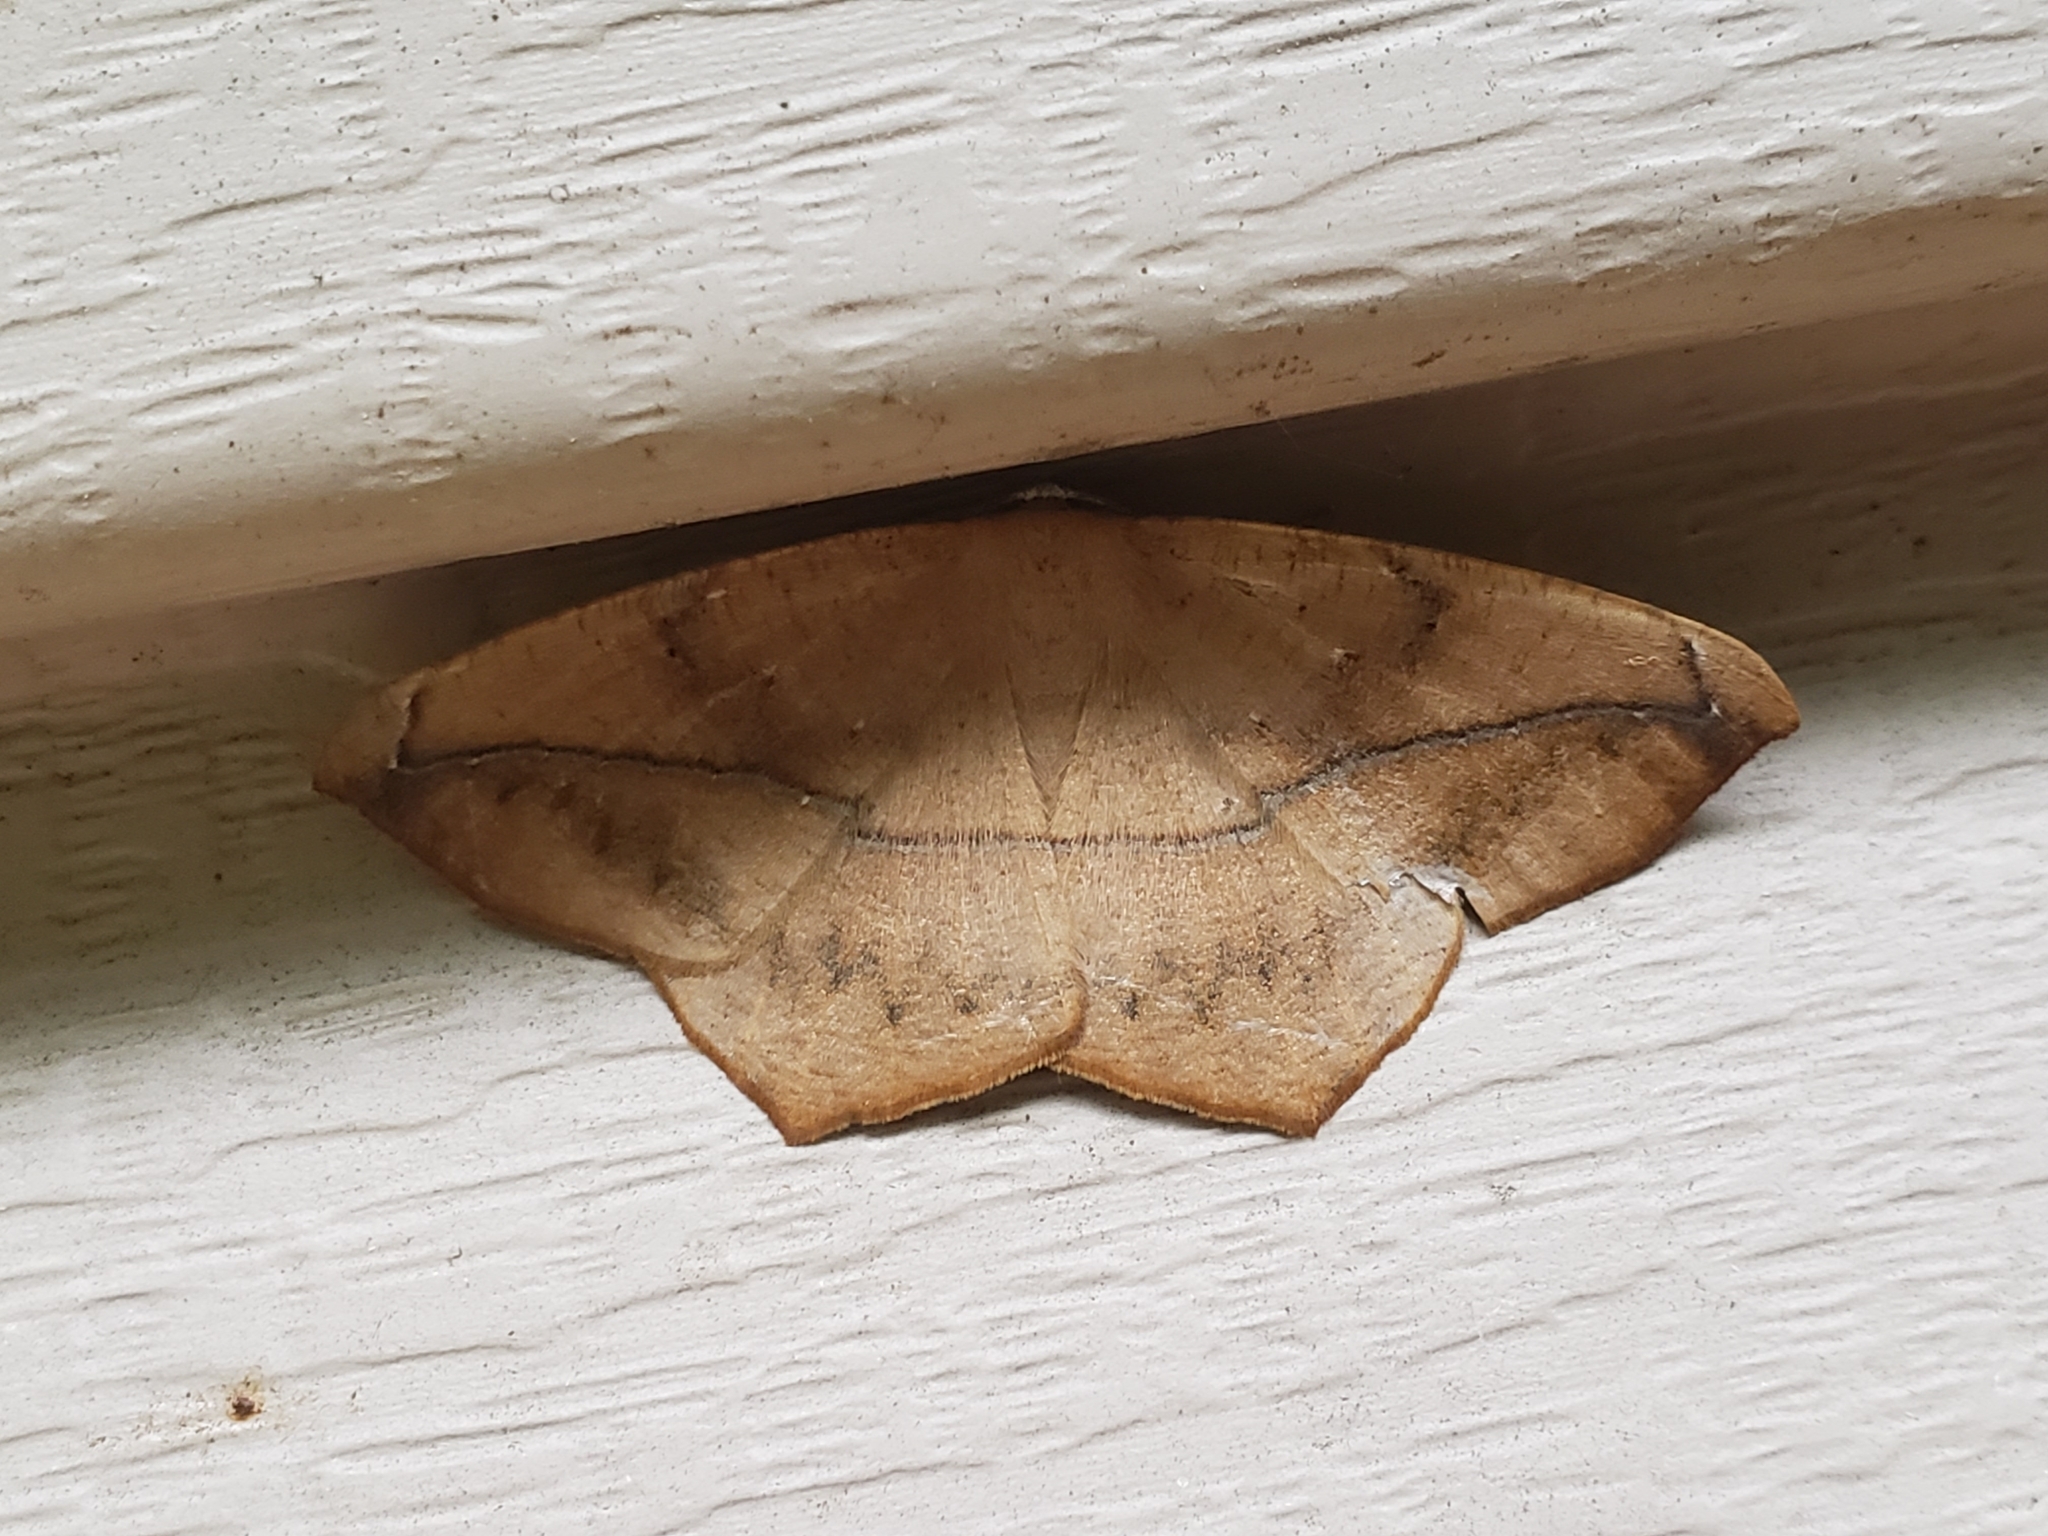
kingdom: Animalia
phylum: Arthropoda
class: Insecta
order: Lepidoptera
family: Geometridae
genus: Prochoerodes
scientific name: Prochoerodes lineola
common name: Large maple spanworm
